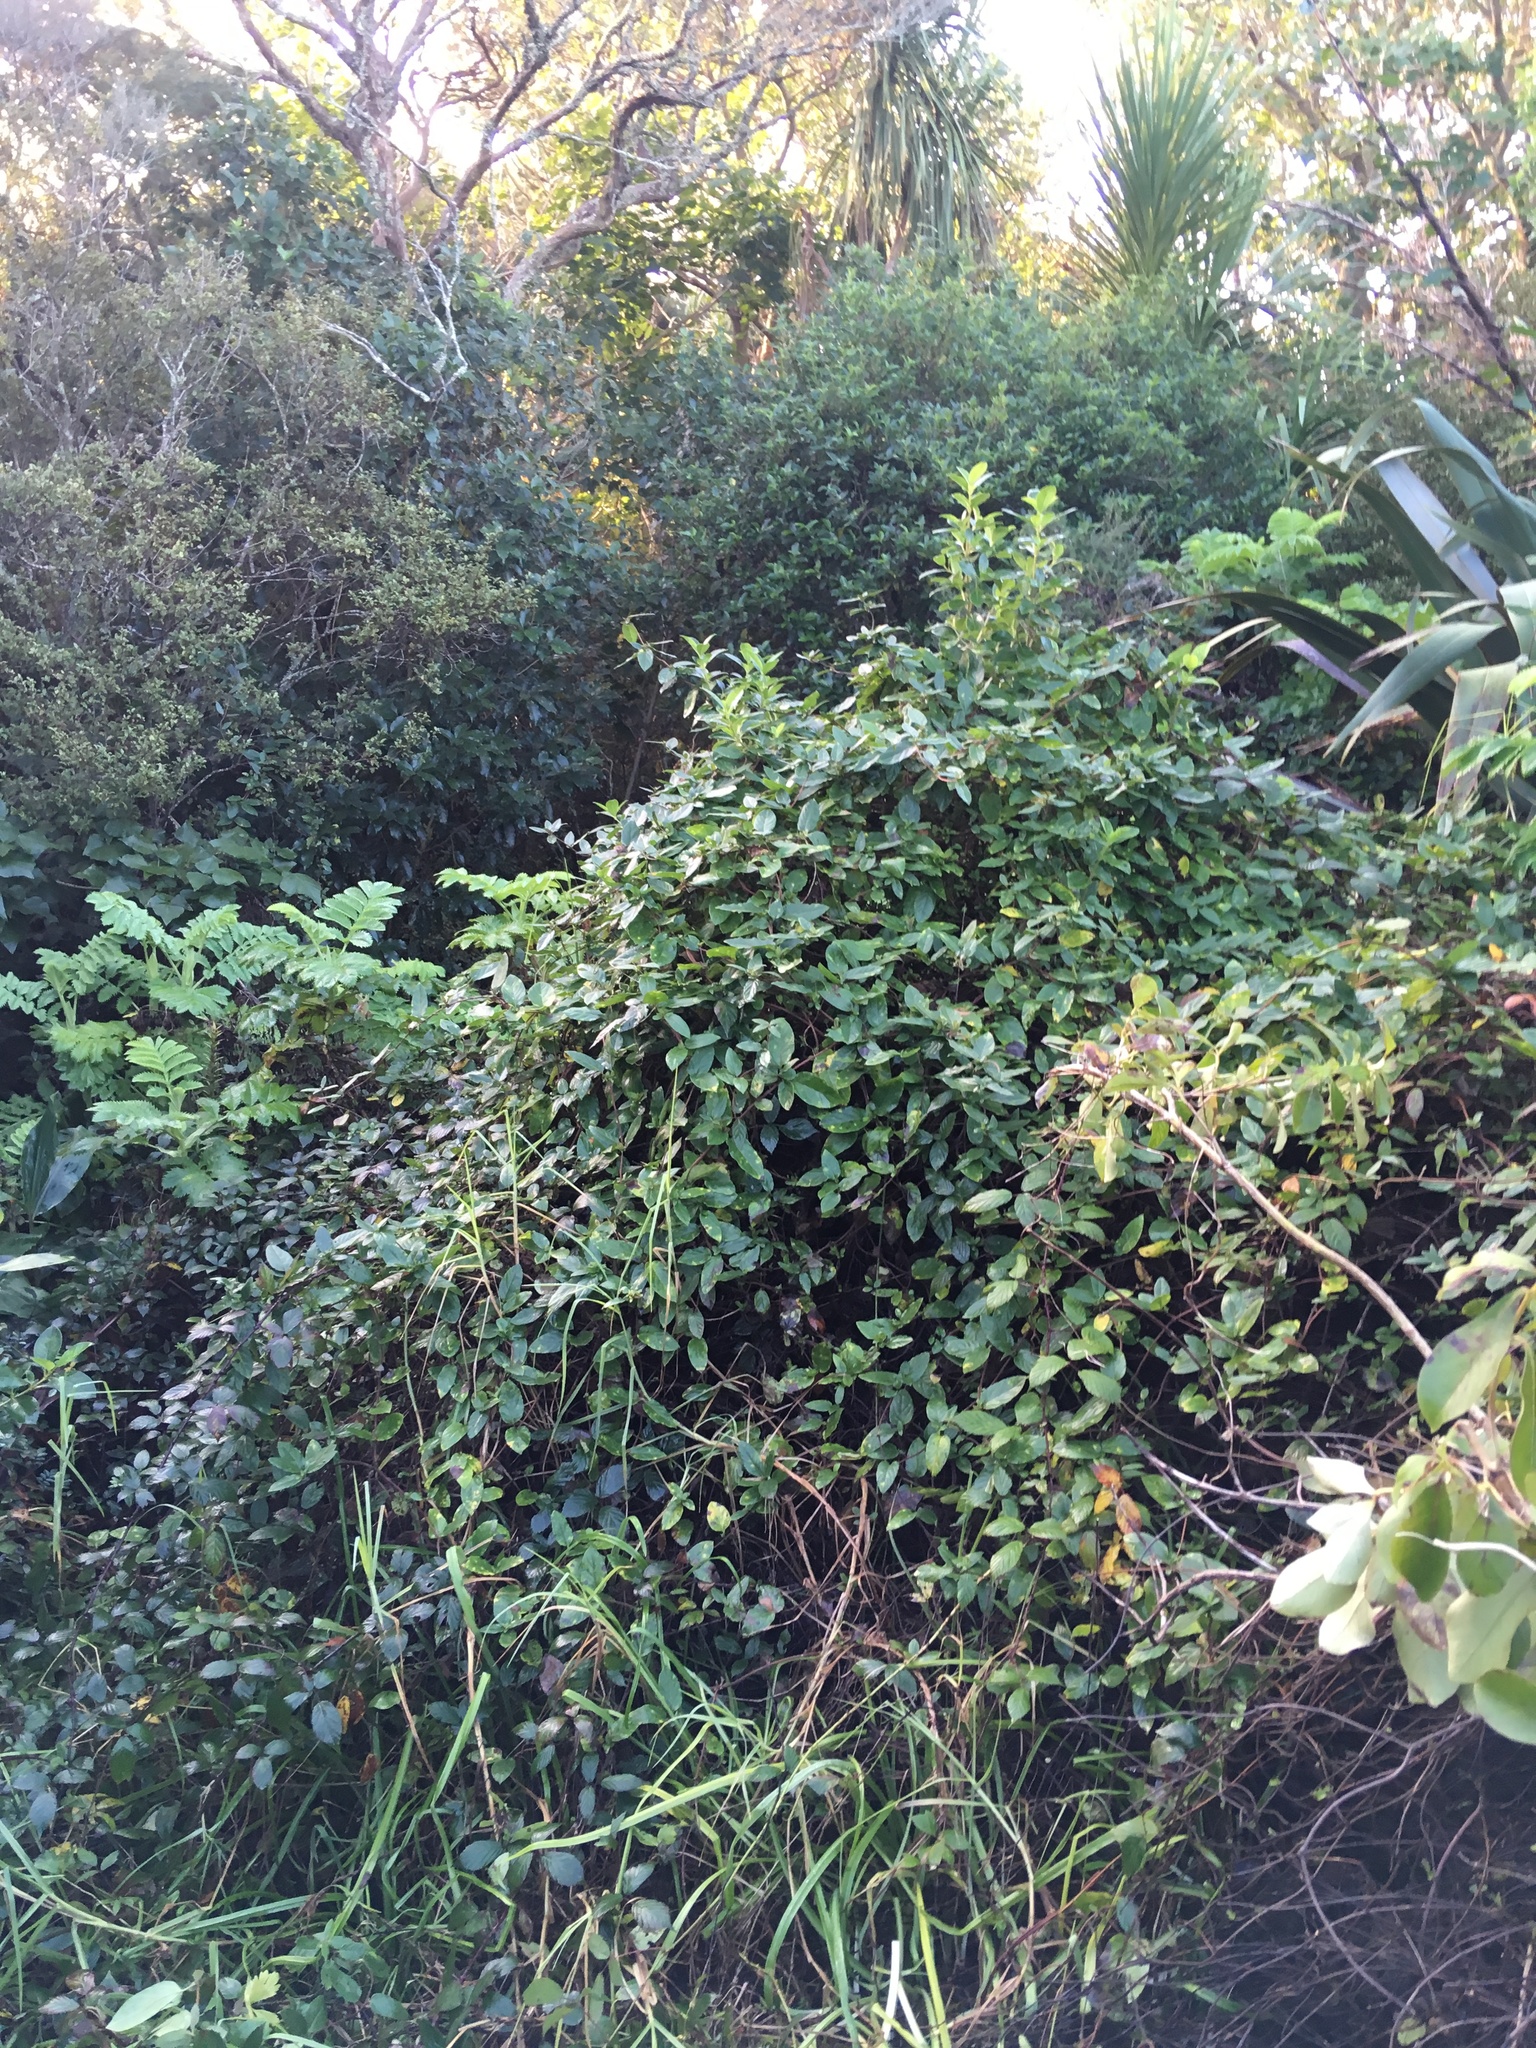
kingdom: Plantae
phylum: Tracheophyta
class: Magnoliopsida
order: Dipsacales
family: Caprifoliaceae
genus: Lonicera
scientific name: Lonicera japonica
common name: Japanese honeysuckle
